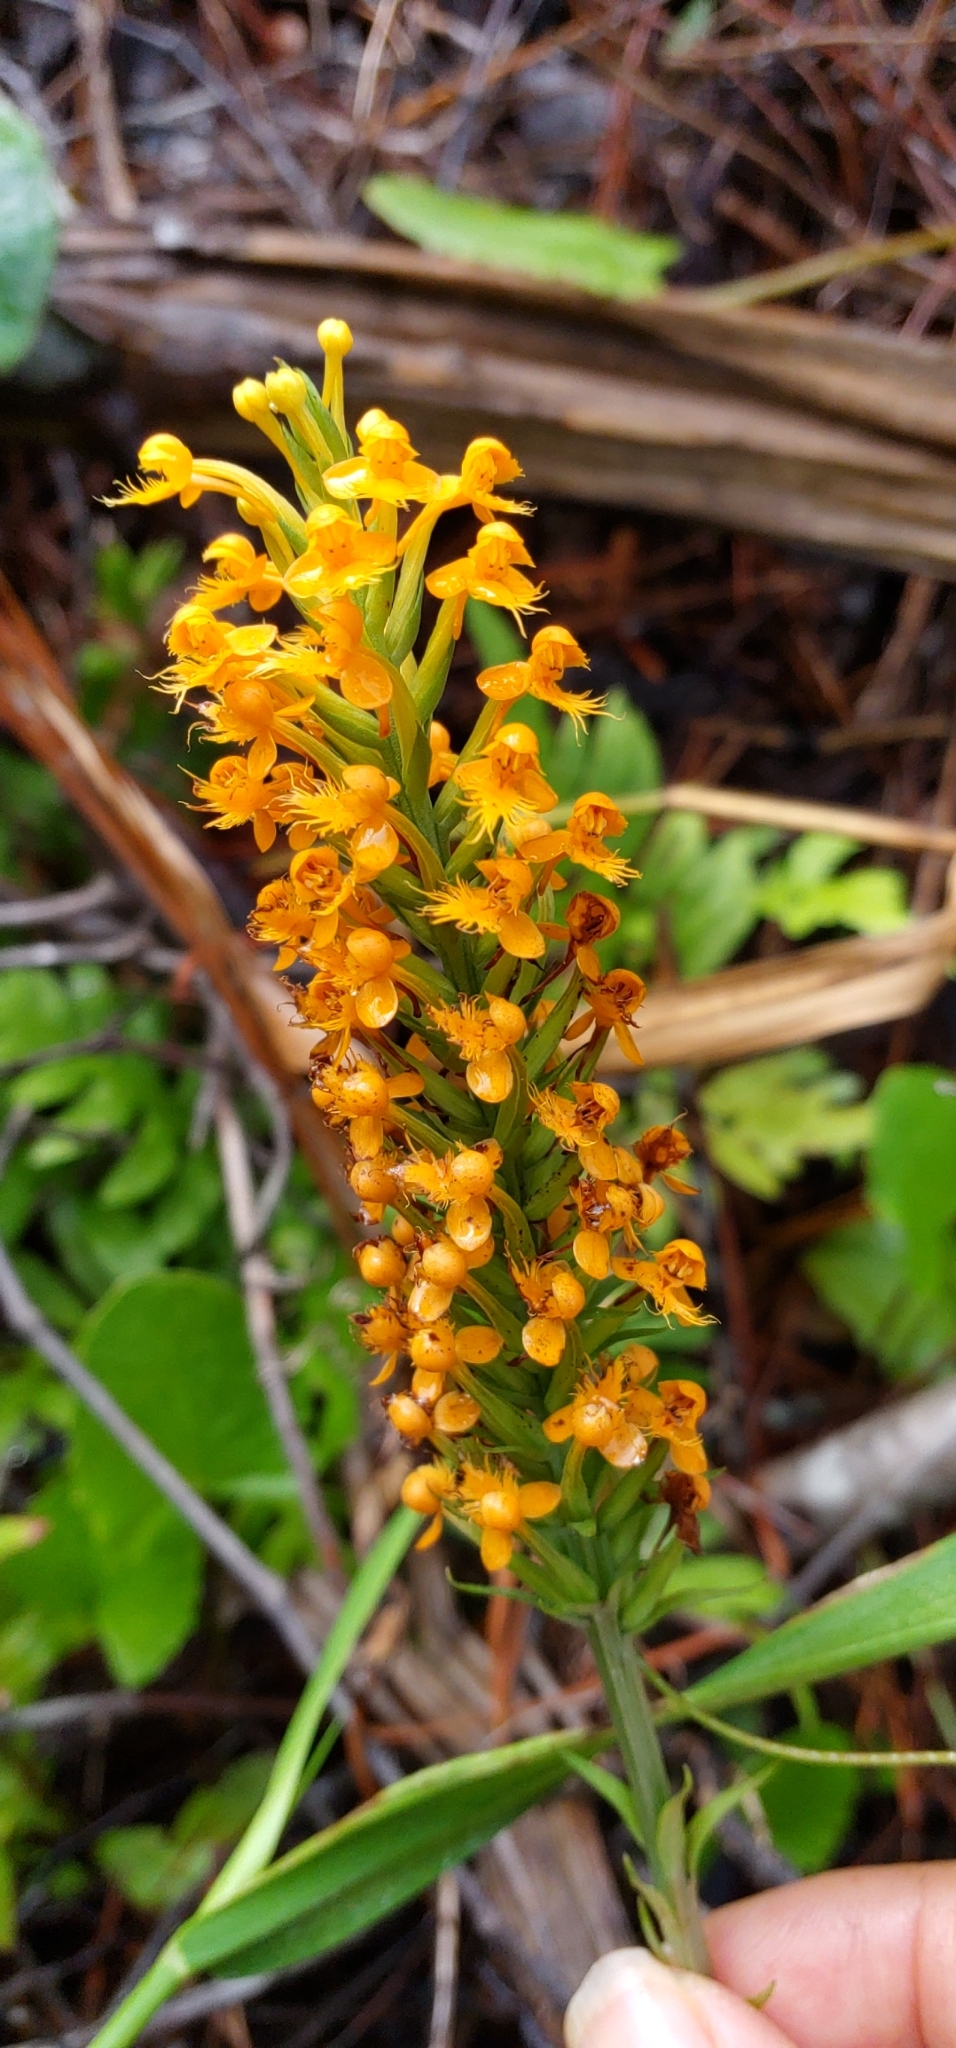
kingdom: Plantae
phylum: Tracheophyta
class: Liliopsida
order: Asparagales
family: Orchidaceae
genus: Platanthera
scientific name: Platanthera cristata
